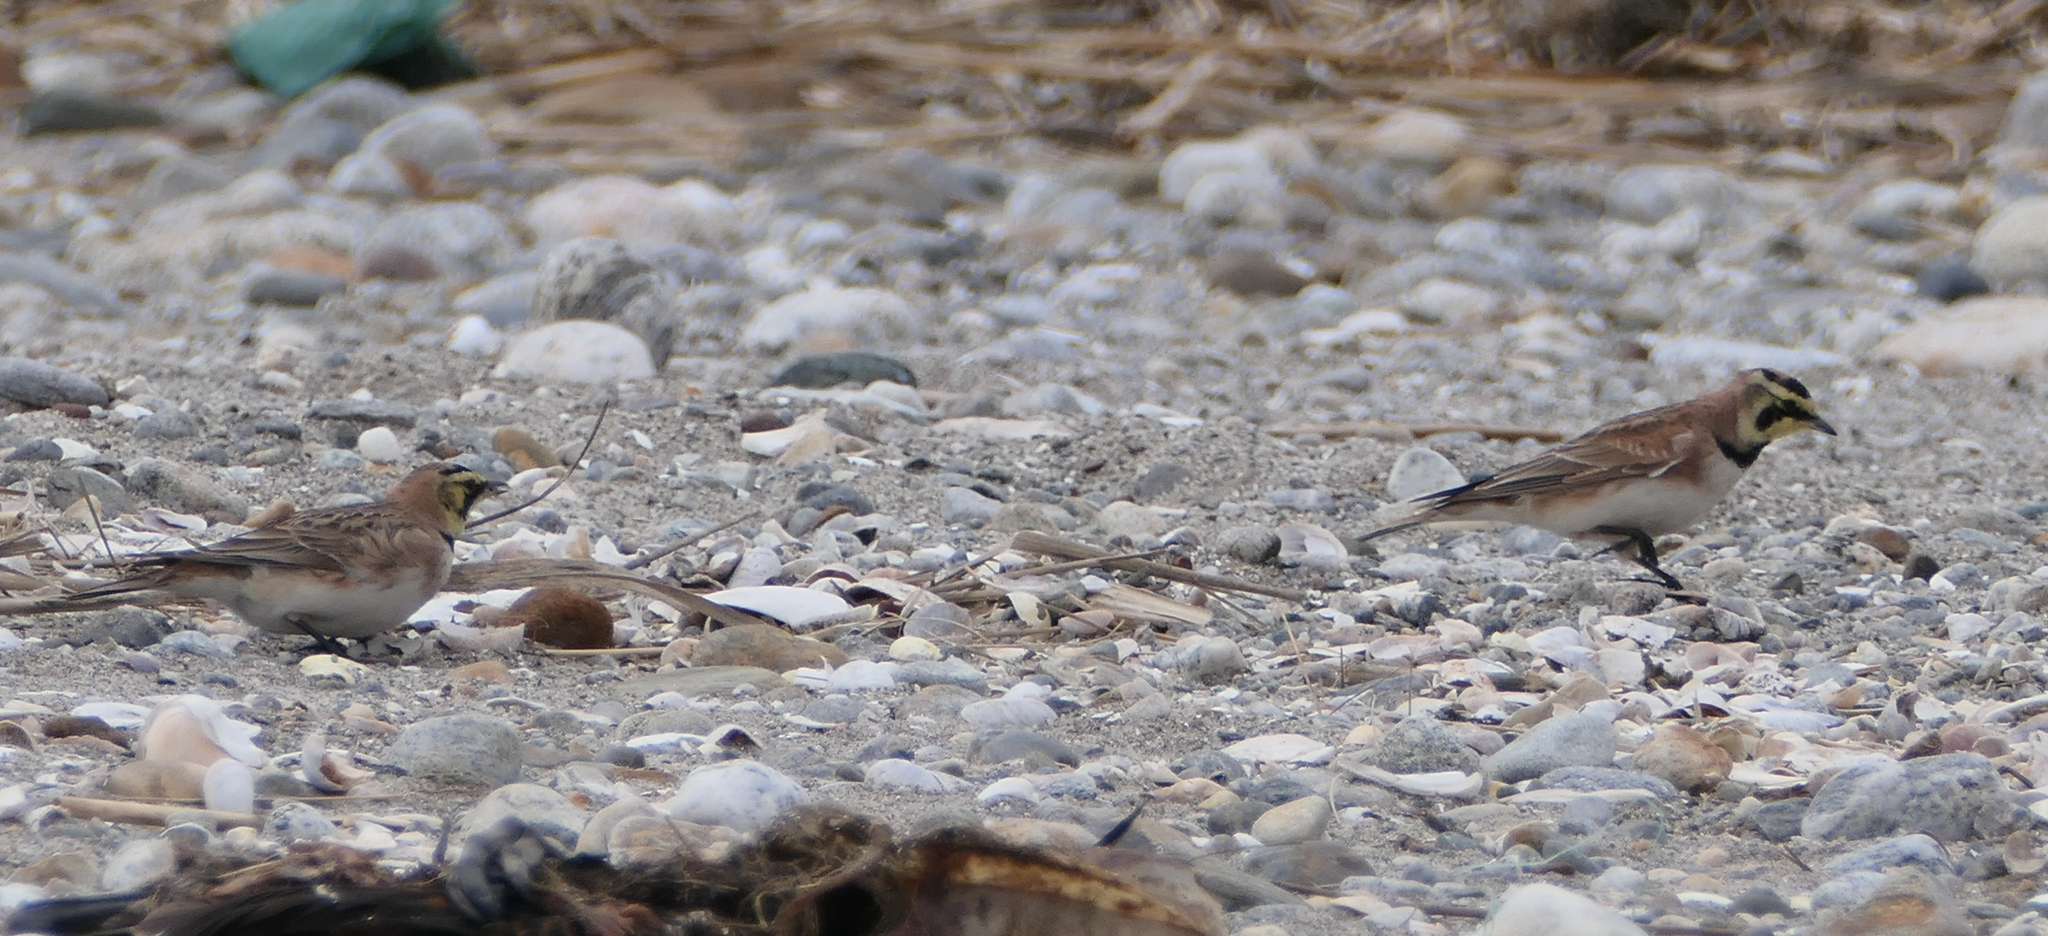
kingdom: Animalia
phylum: Chordata
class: Aves
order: Passeriformes
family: Alaudidae
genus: Eremophila
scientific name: Eremophila alpestris
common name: Horned lark
